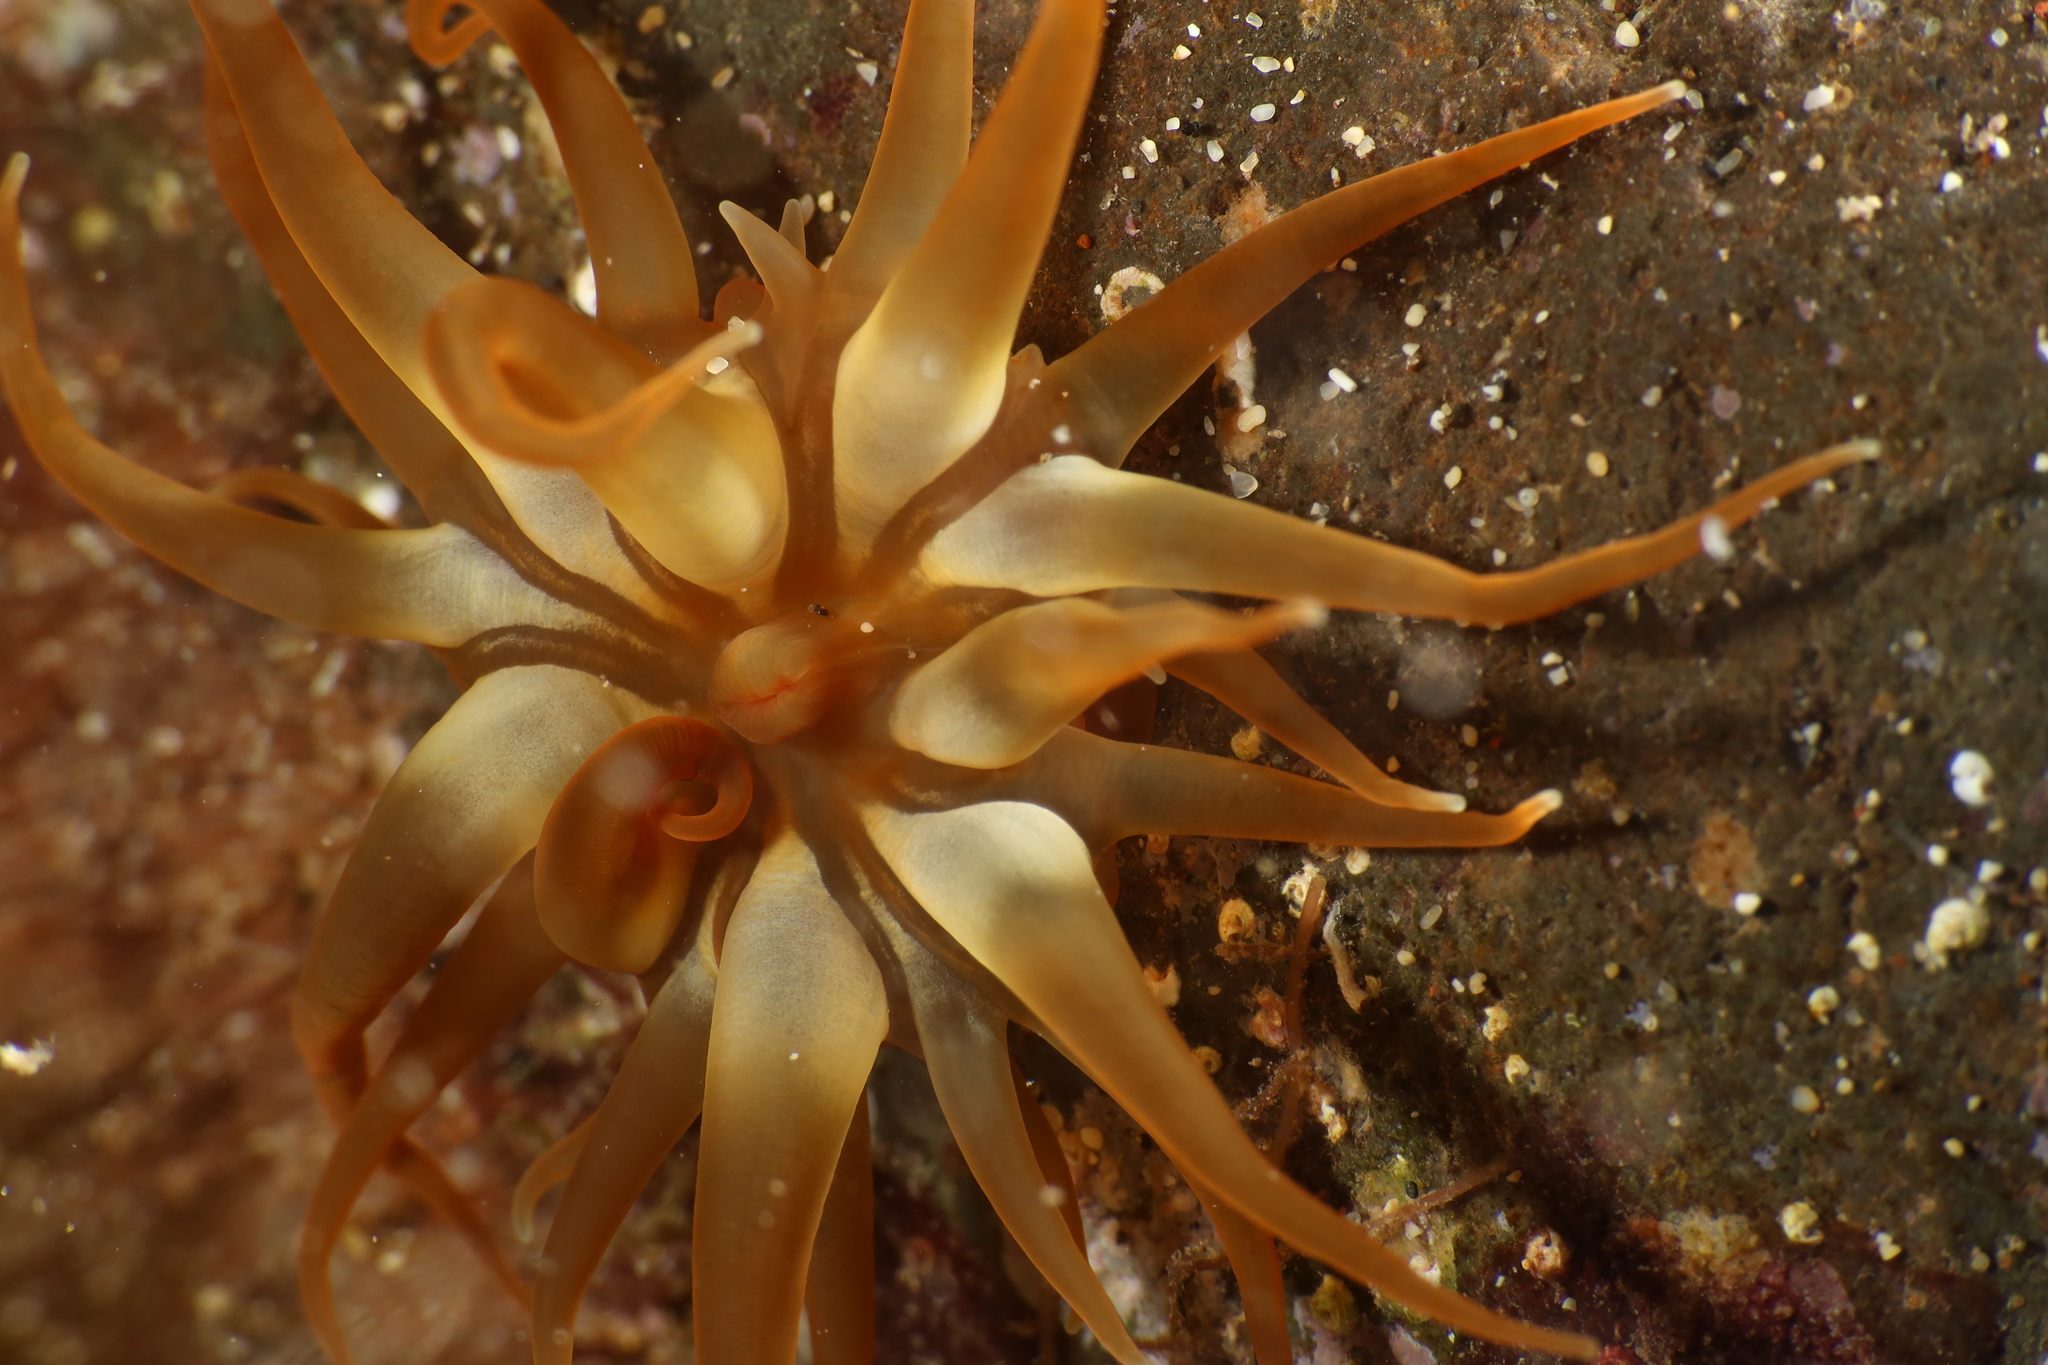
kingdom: Animalia
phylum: Cnidaria
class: Anthozoa
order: Actiniaria
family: Actiniidae
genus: Anemonia
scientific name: Anemonia sargassensis
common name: Sargassum anemone
